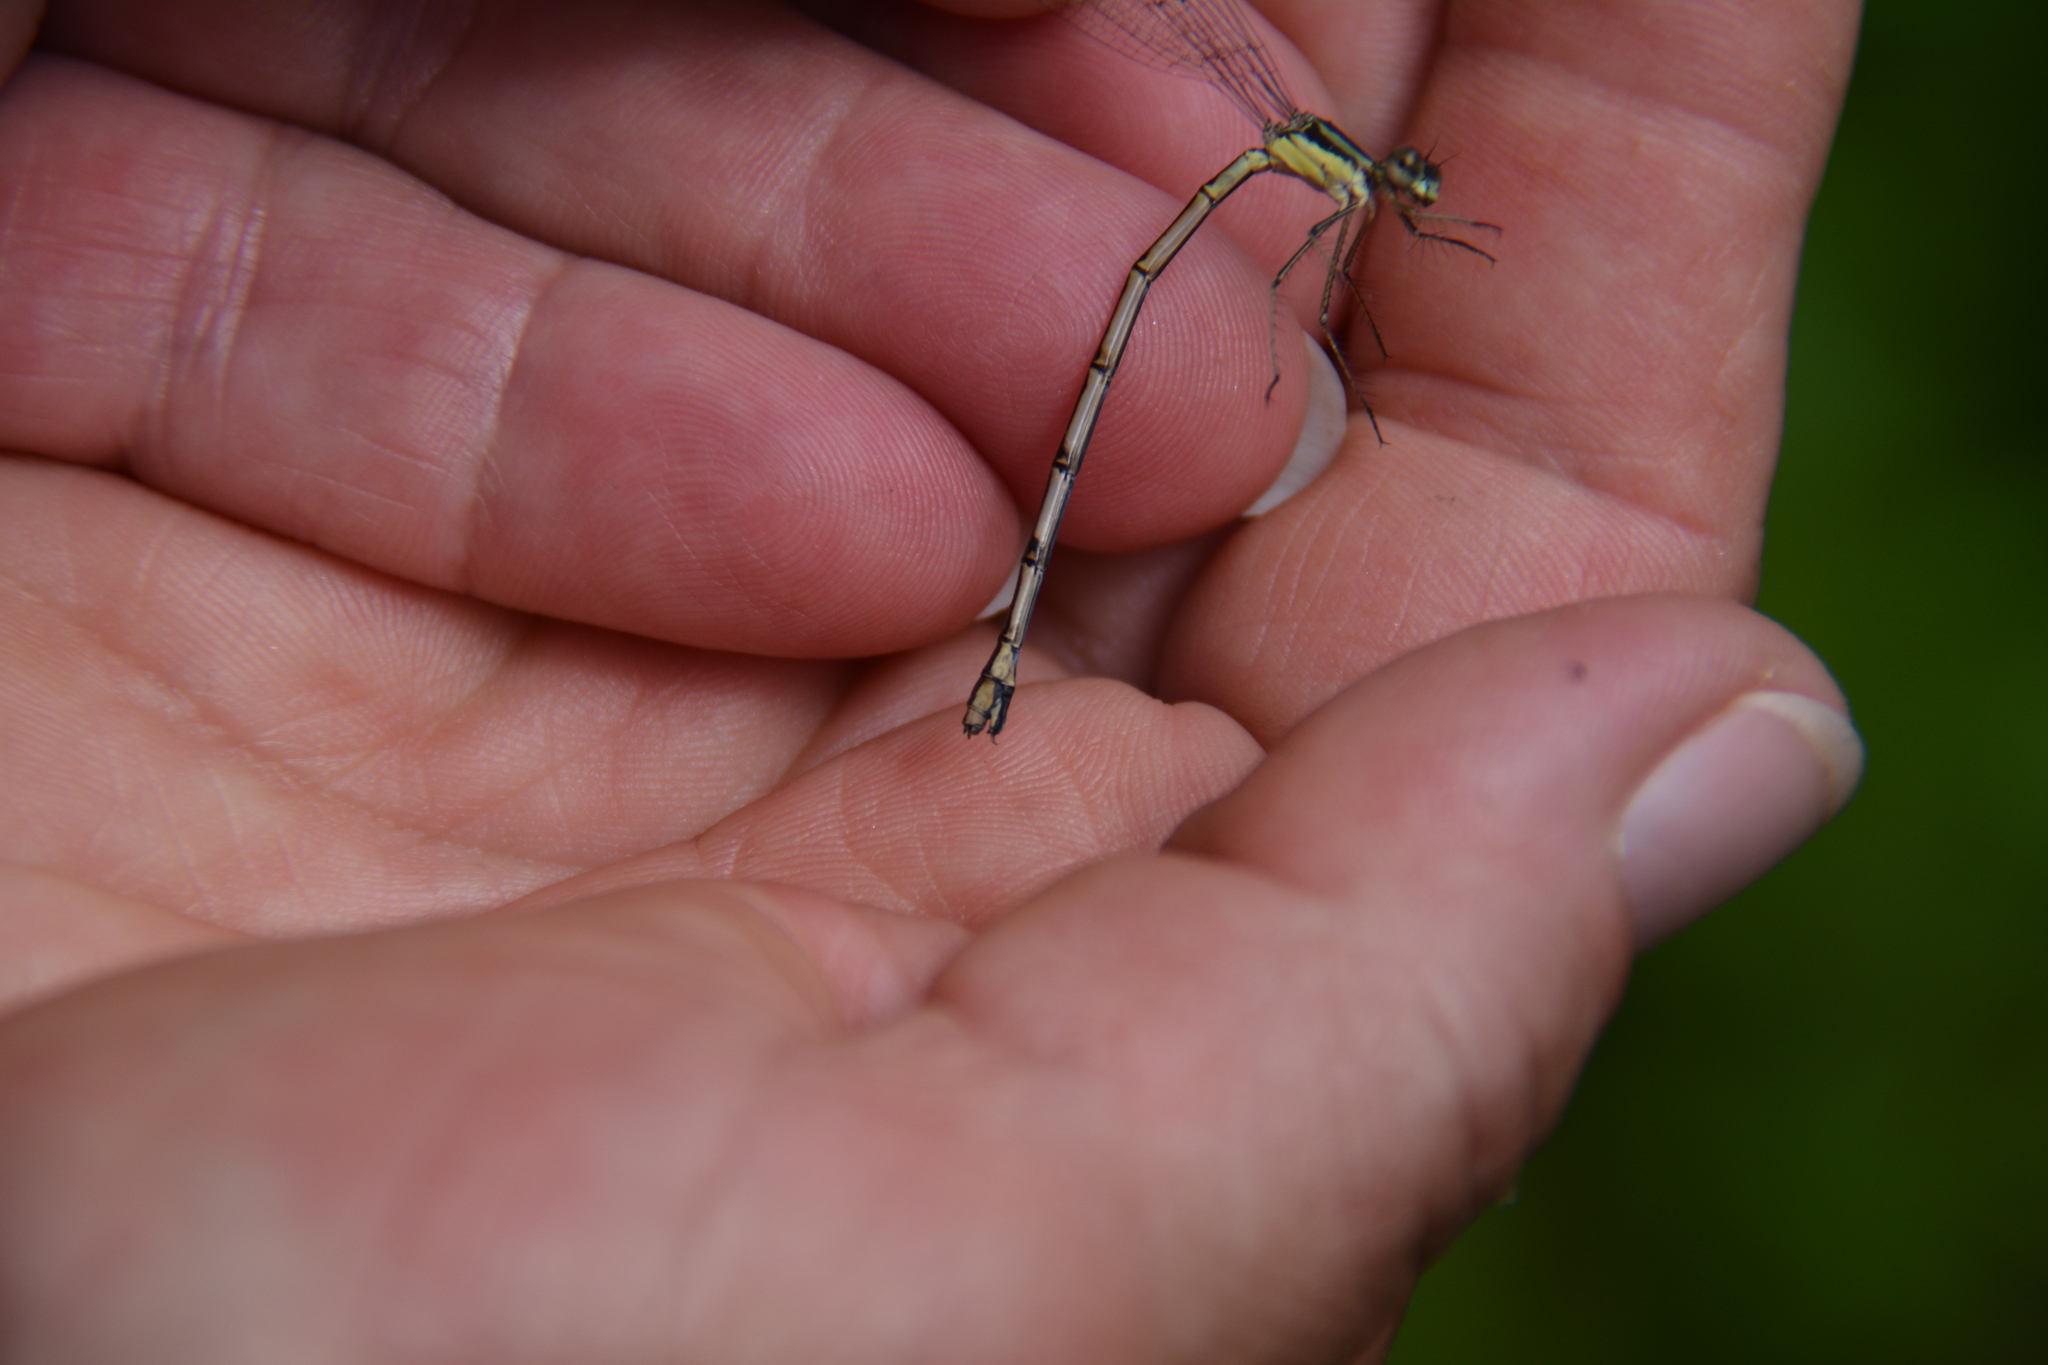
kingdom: Animalia
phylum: Arthropoda
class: Insecta
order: Odonata
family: Lestidae
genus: Lestes
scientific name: Lestes rectangularis
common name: Slender spreadwing
